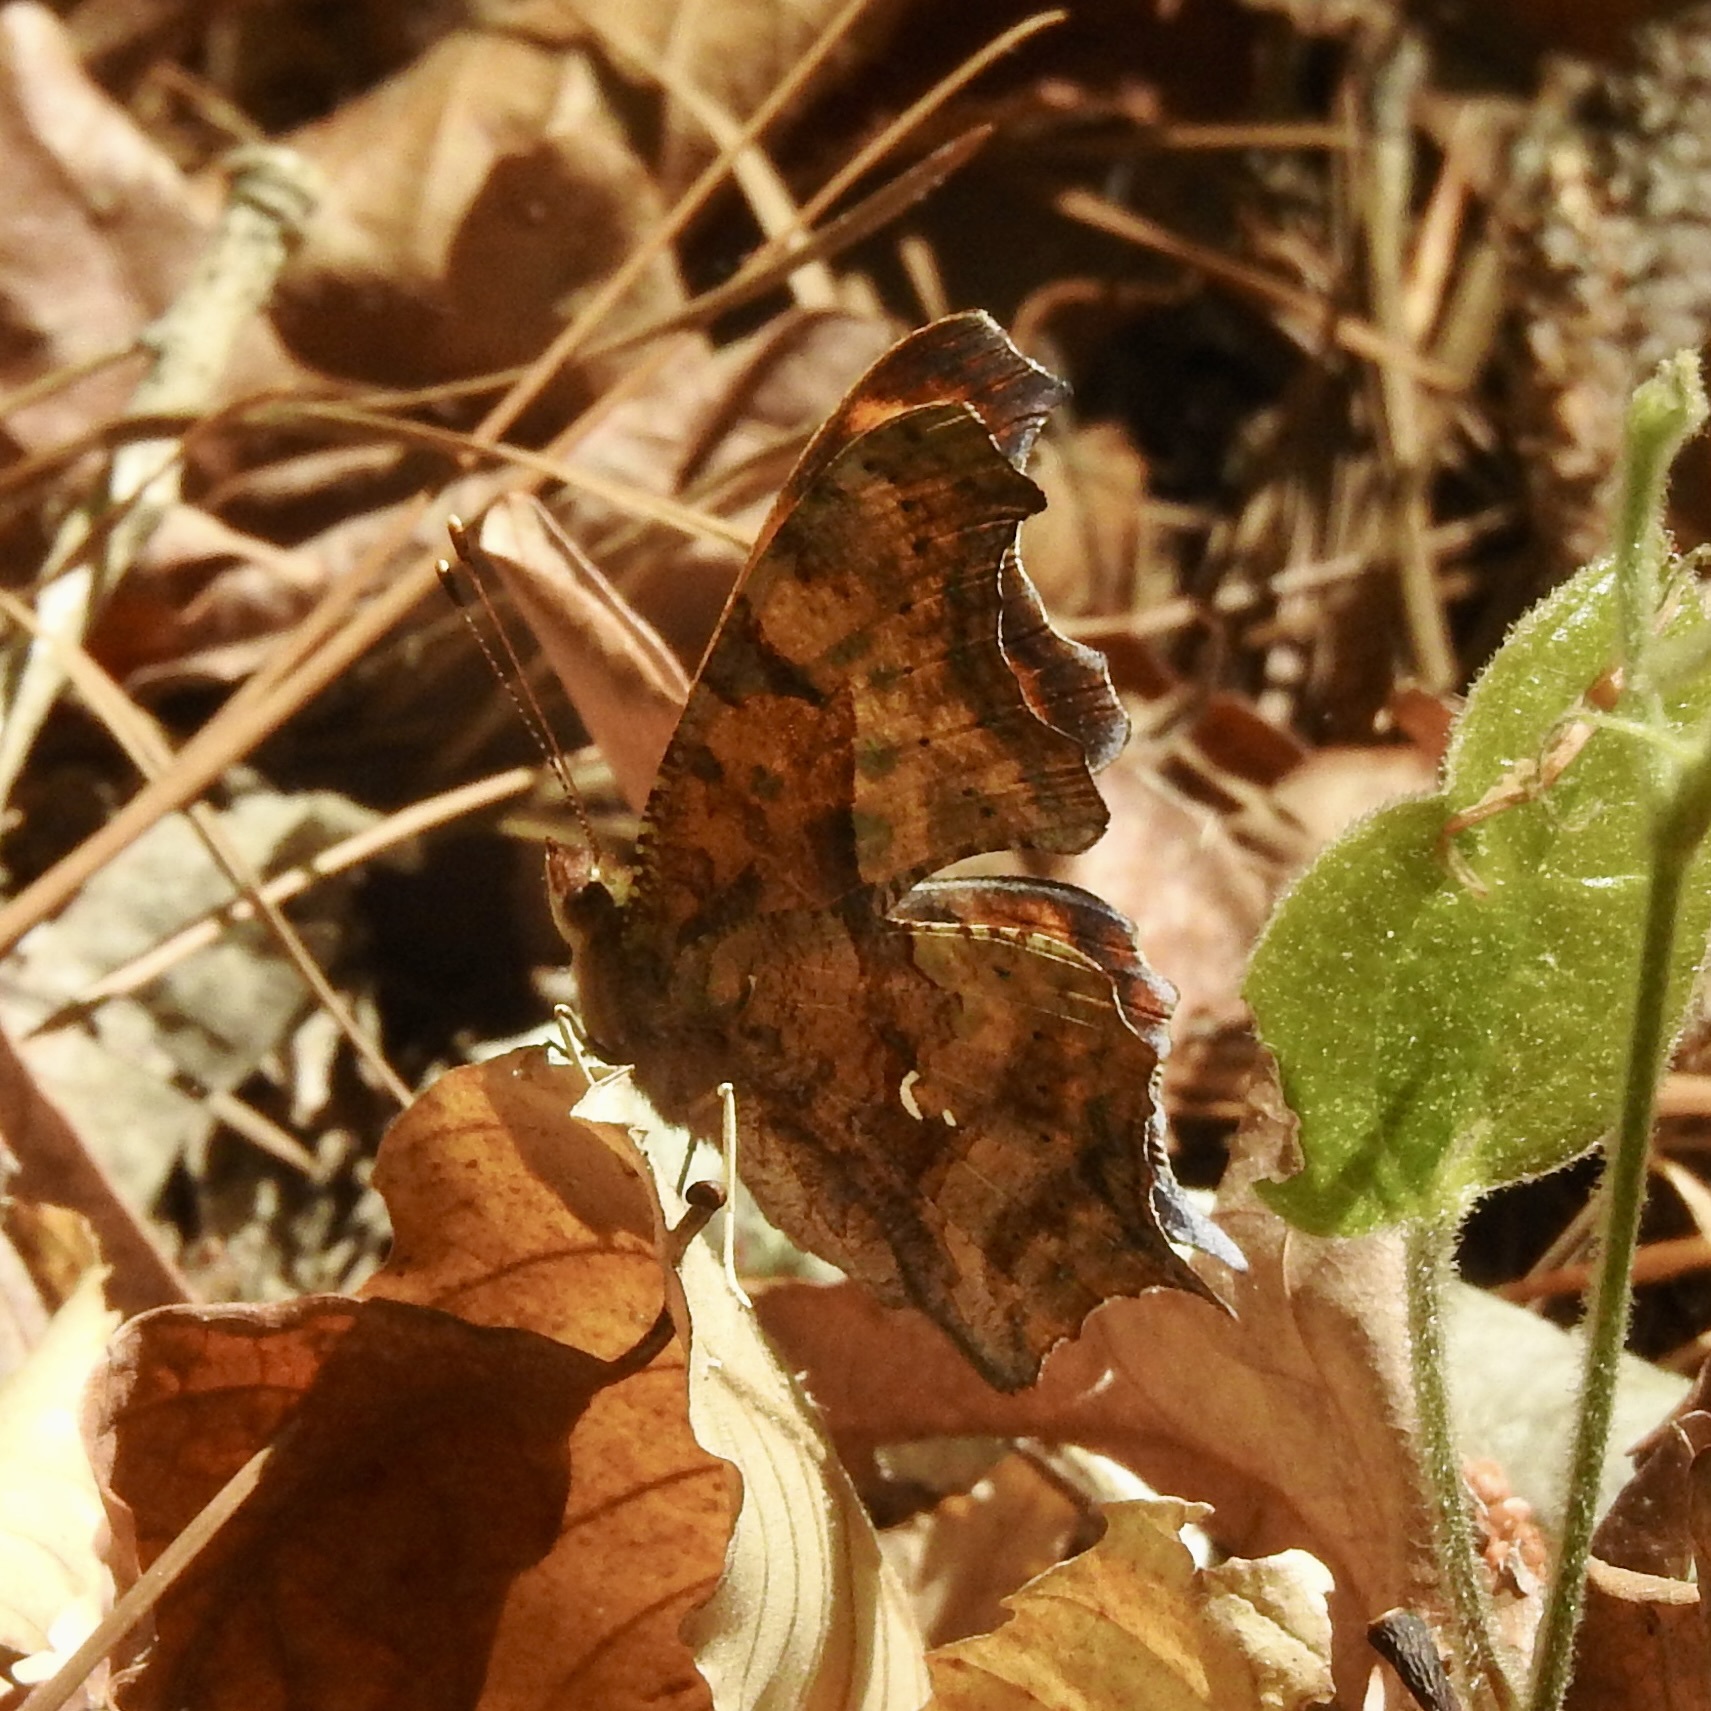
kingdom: Animalia
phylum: Arthropoda
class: Insecta
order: Lepidoptera
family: Nymphalidae
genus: Polygonia
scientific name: Polygonia interrogationis
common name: Question mark
